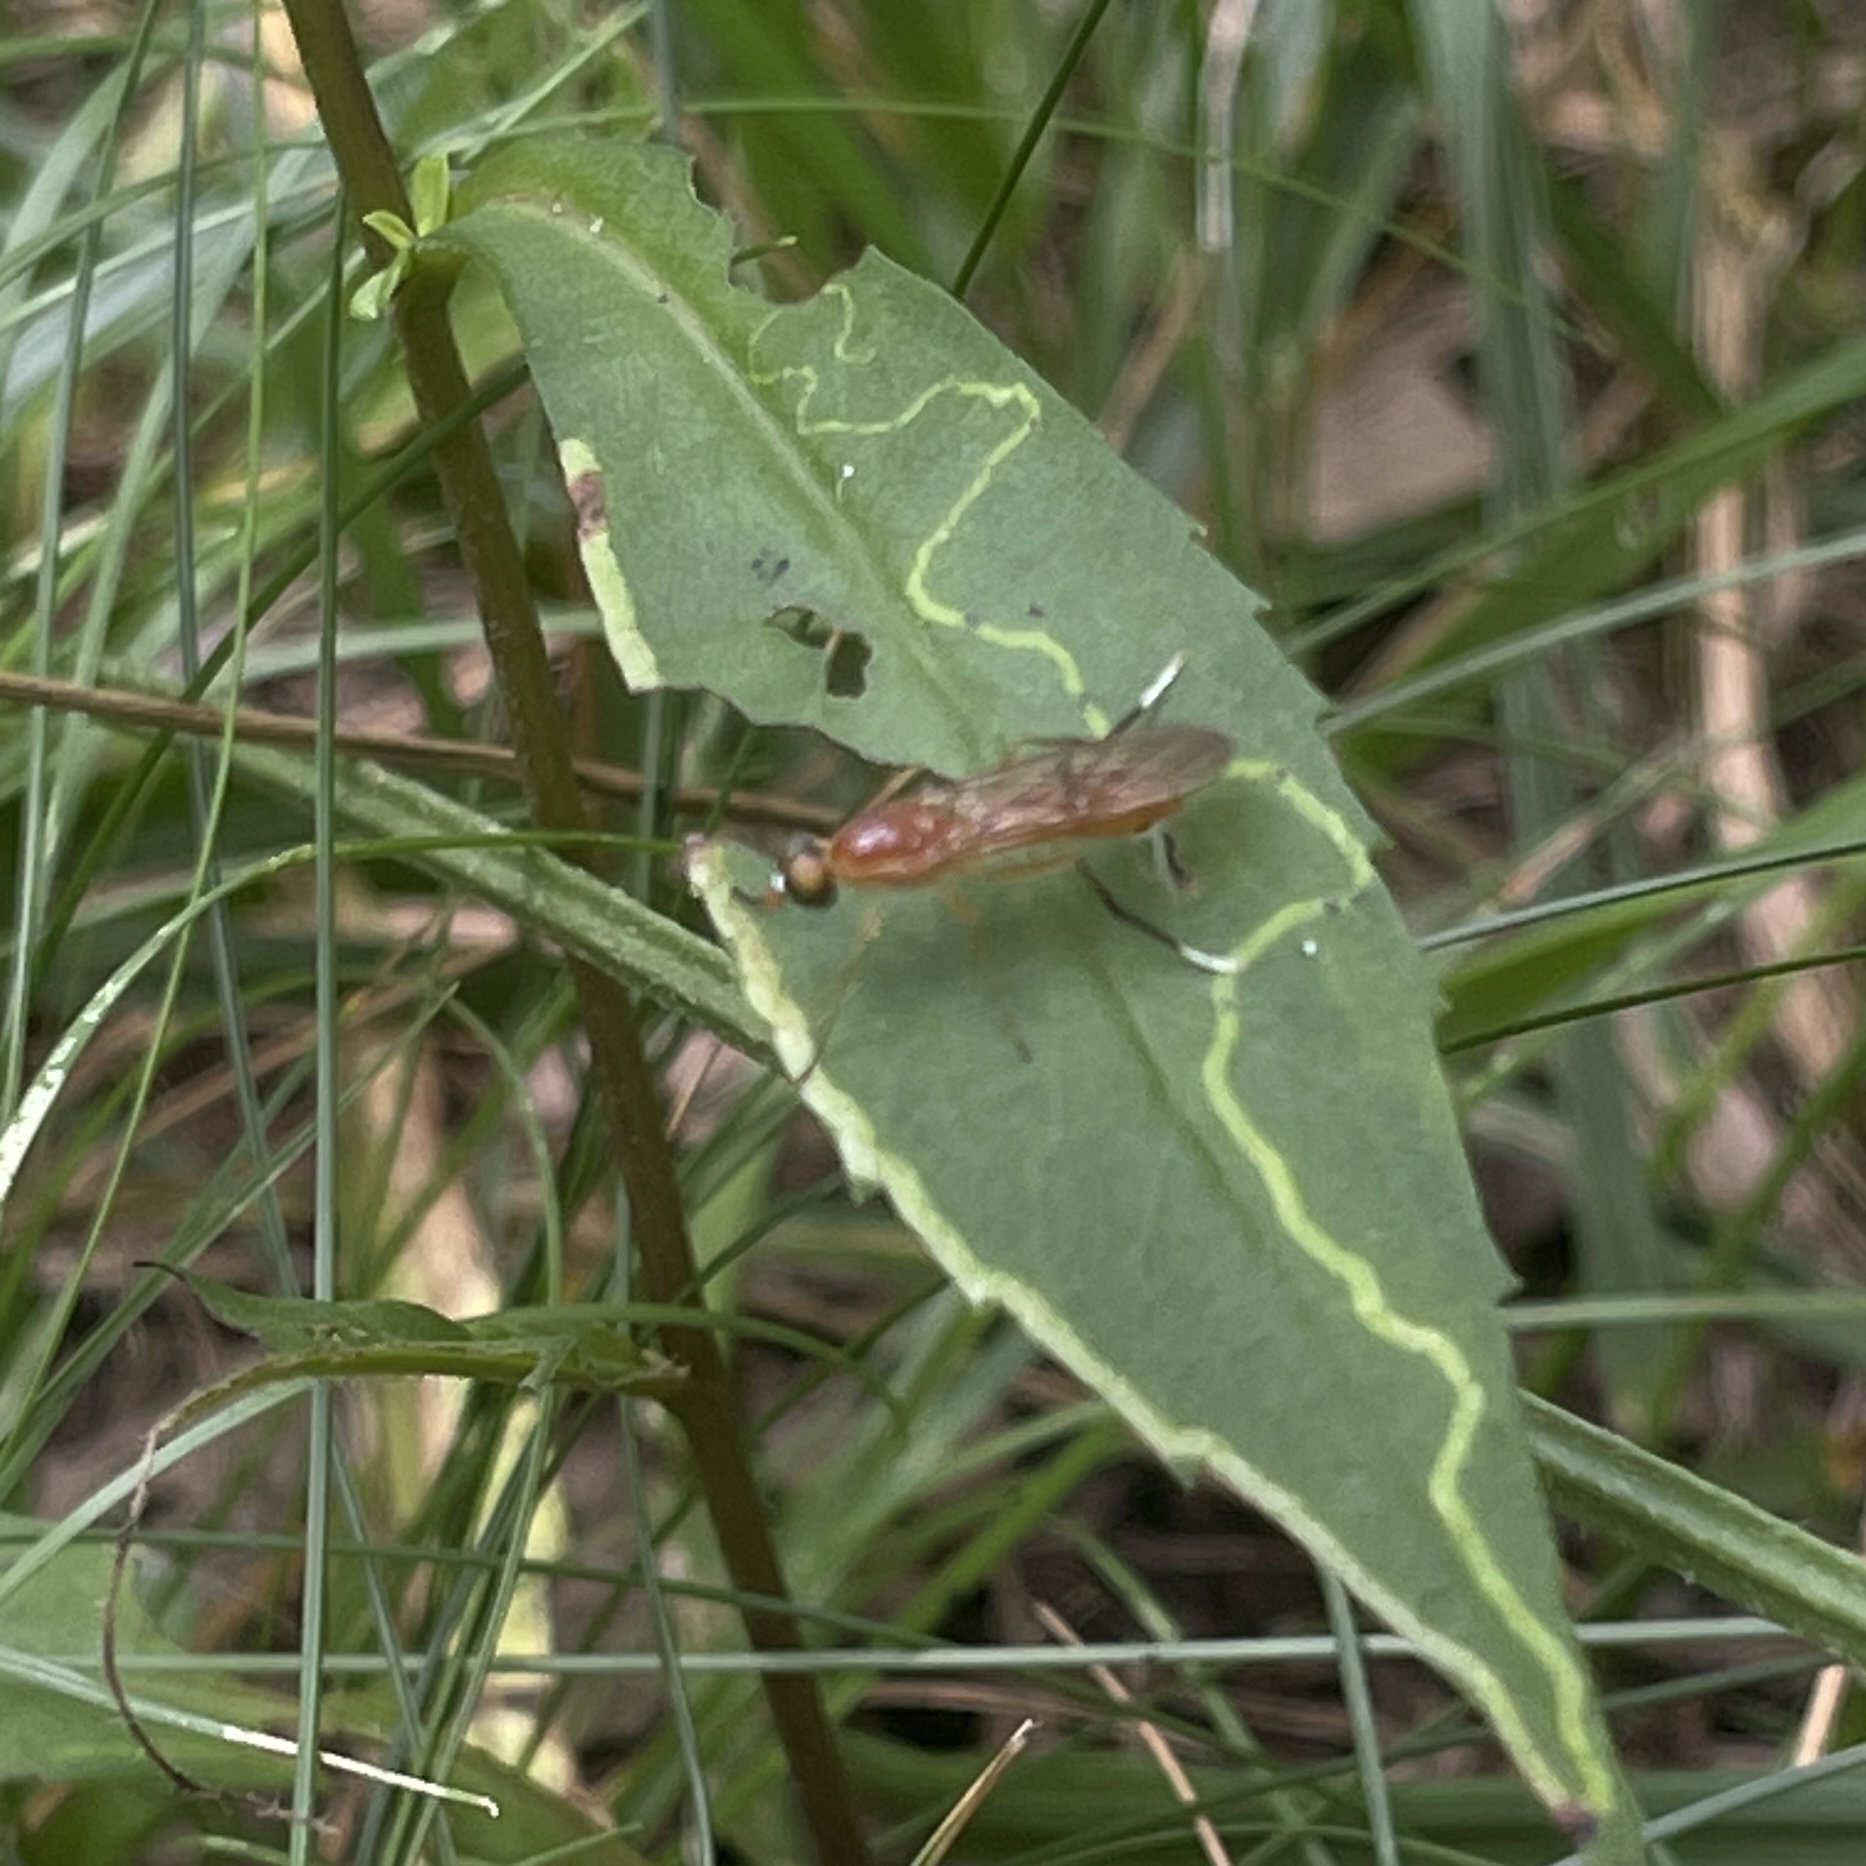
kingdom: Animalia
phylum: Arthropoda
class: Insecta
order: Diptera
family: Stratiomyidae
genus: Ptecticus
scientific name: Ptecticus sackenii
